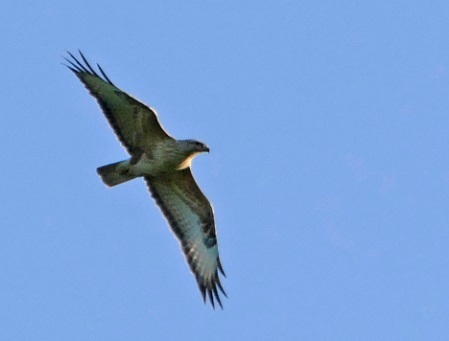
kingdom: Animalia
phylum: Chordata
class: Aves
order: Accipitriformes
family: Accipitridae
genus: Buteo
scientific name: Buteo buteo
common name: Common buzzard
